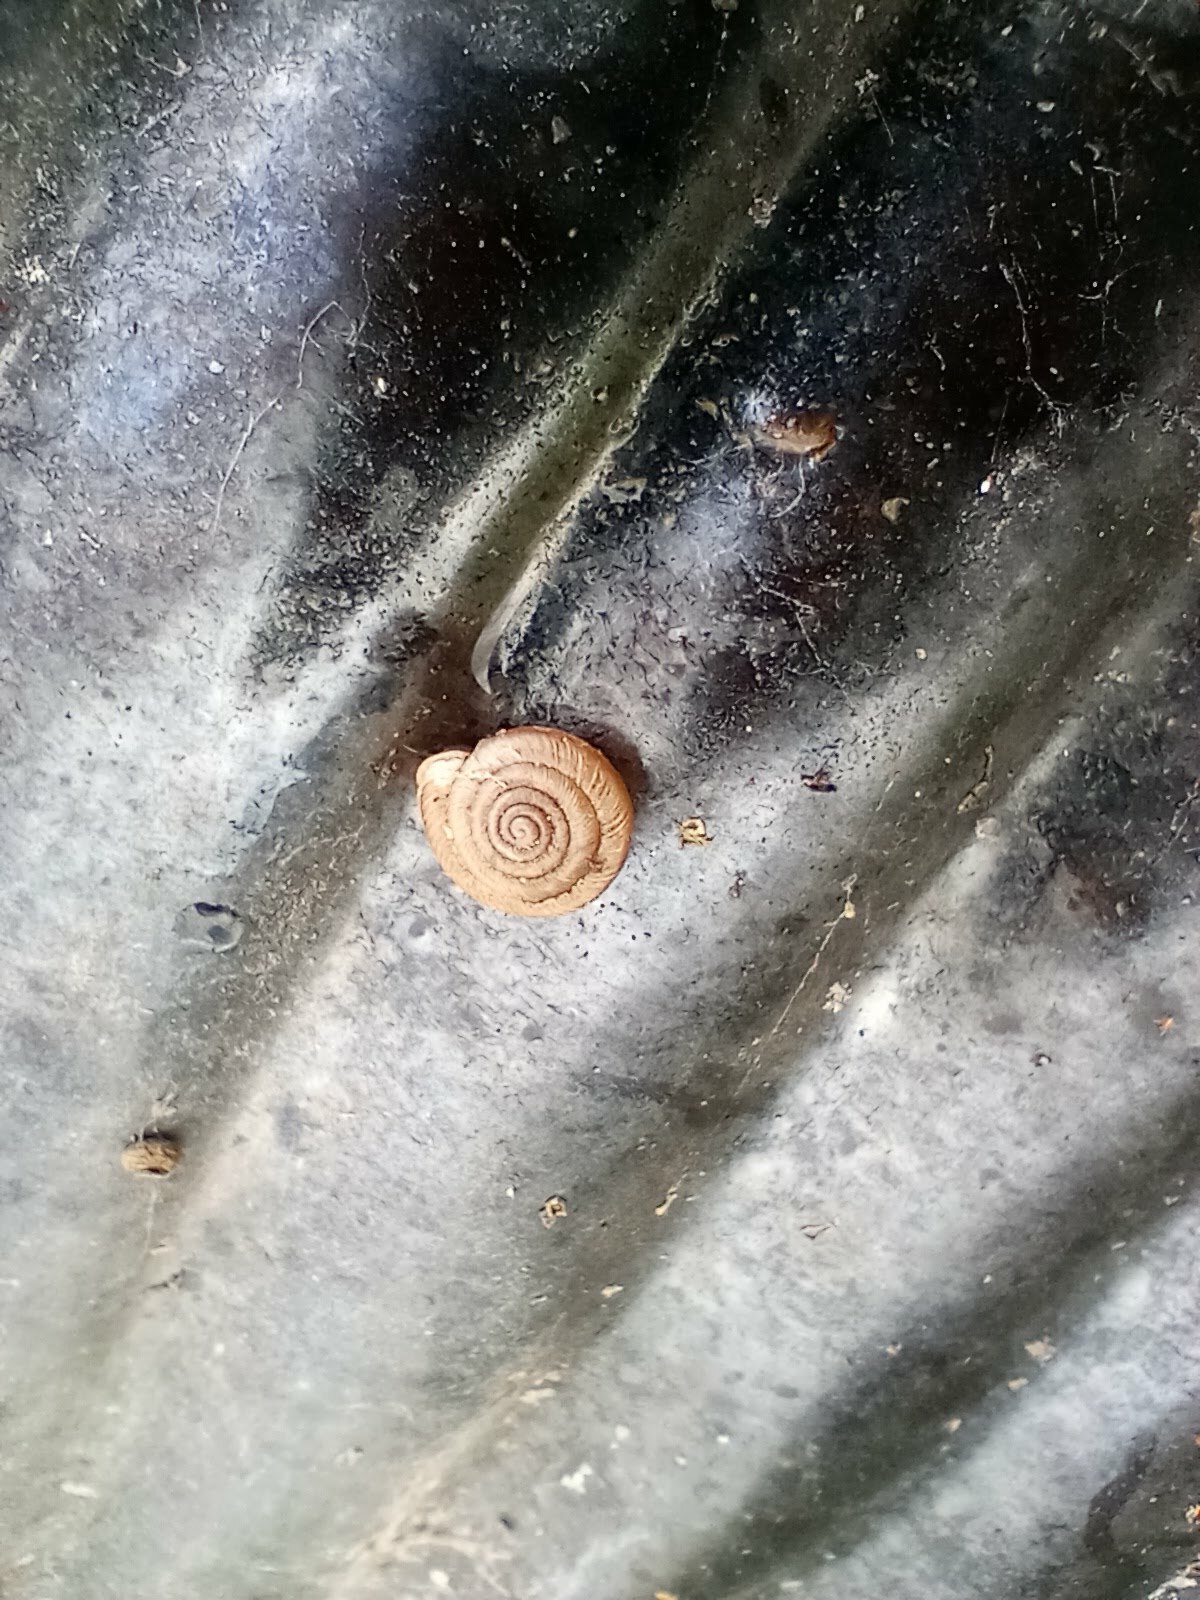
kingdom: Animalia
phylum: Mollusca
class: Gastropoda
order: Stylommatophora
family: Polygyridae
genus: Polygyra
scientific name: Polygyra cereolus
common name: Southern flatcone snail
